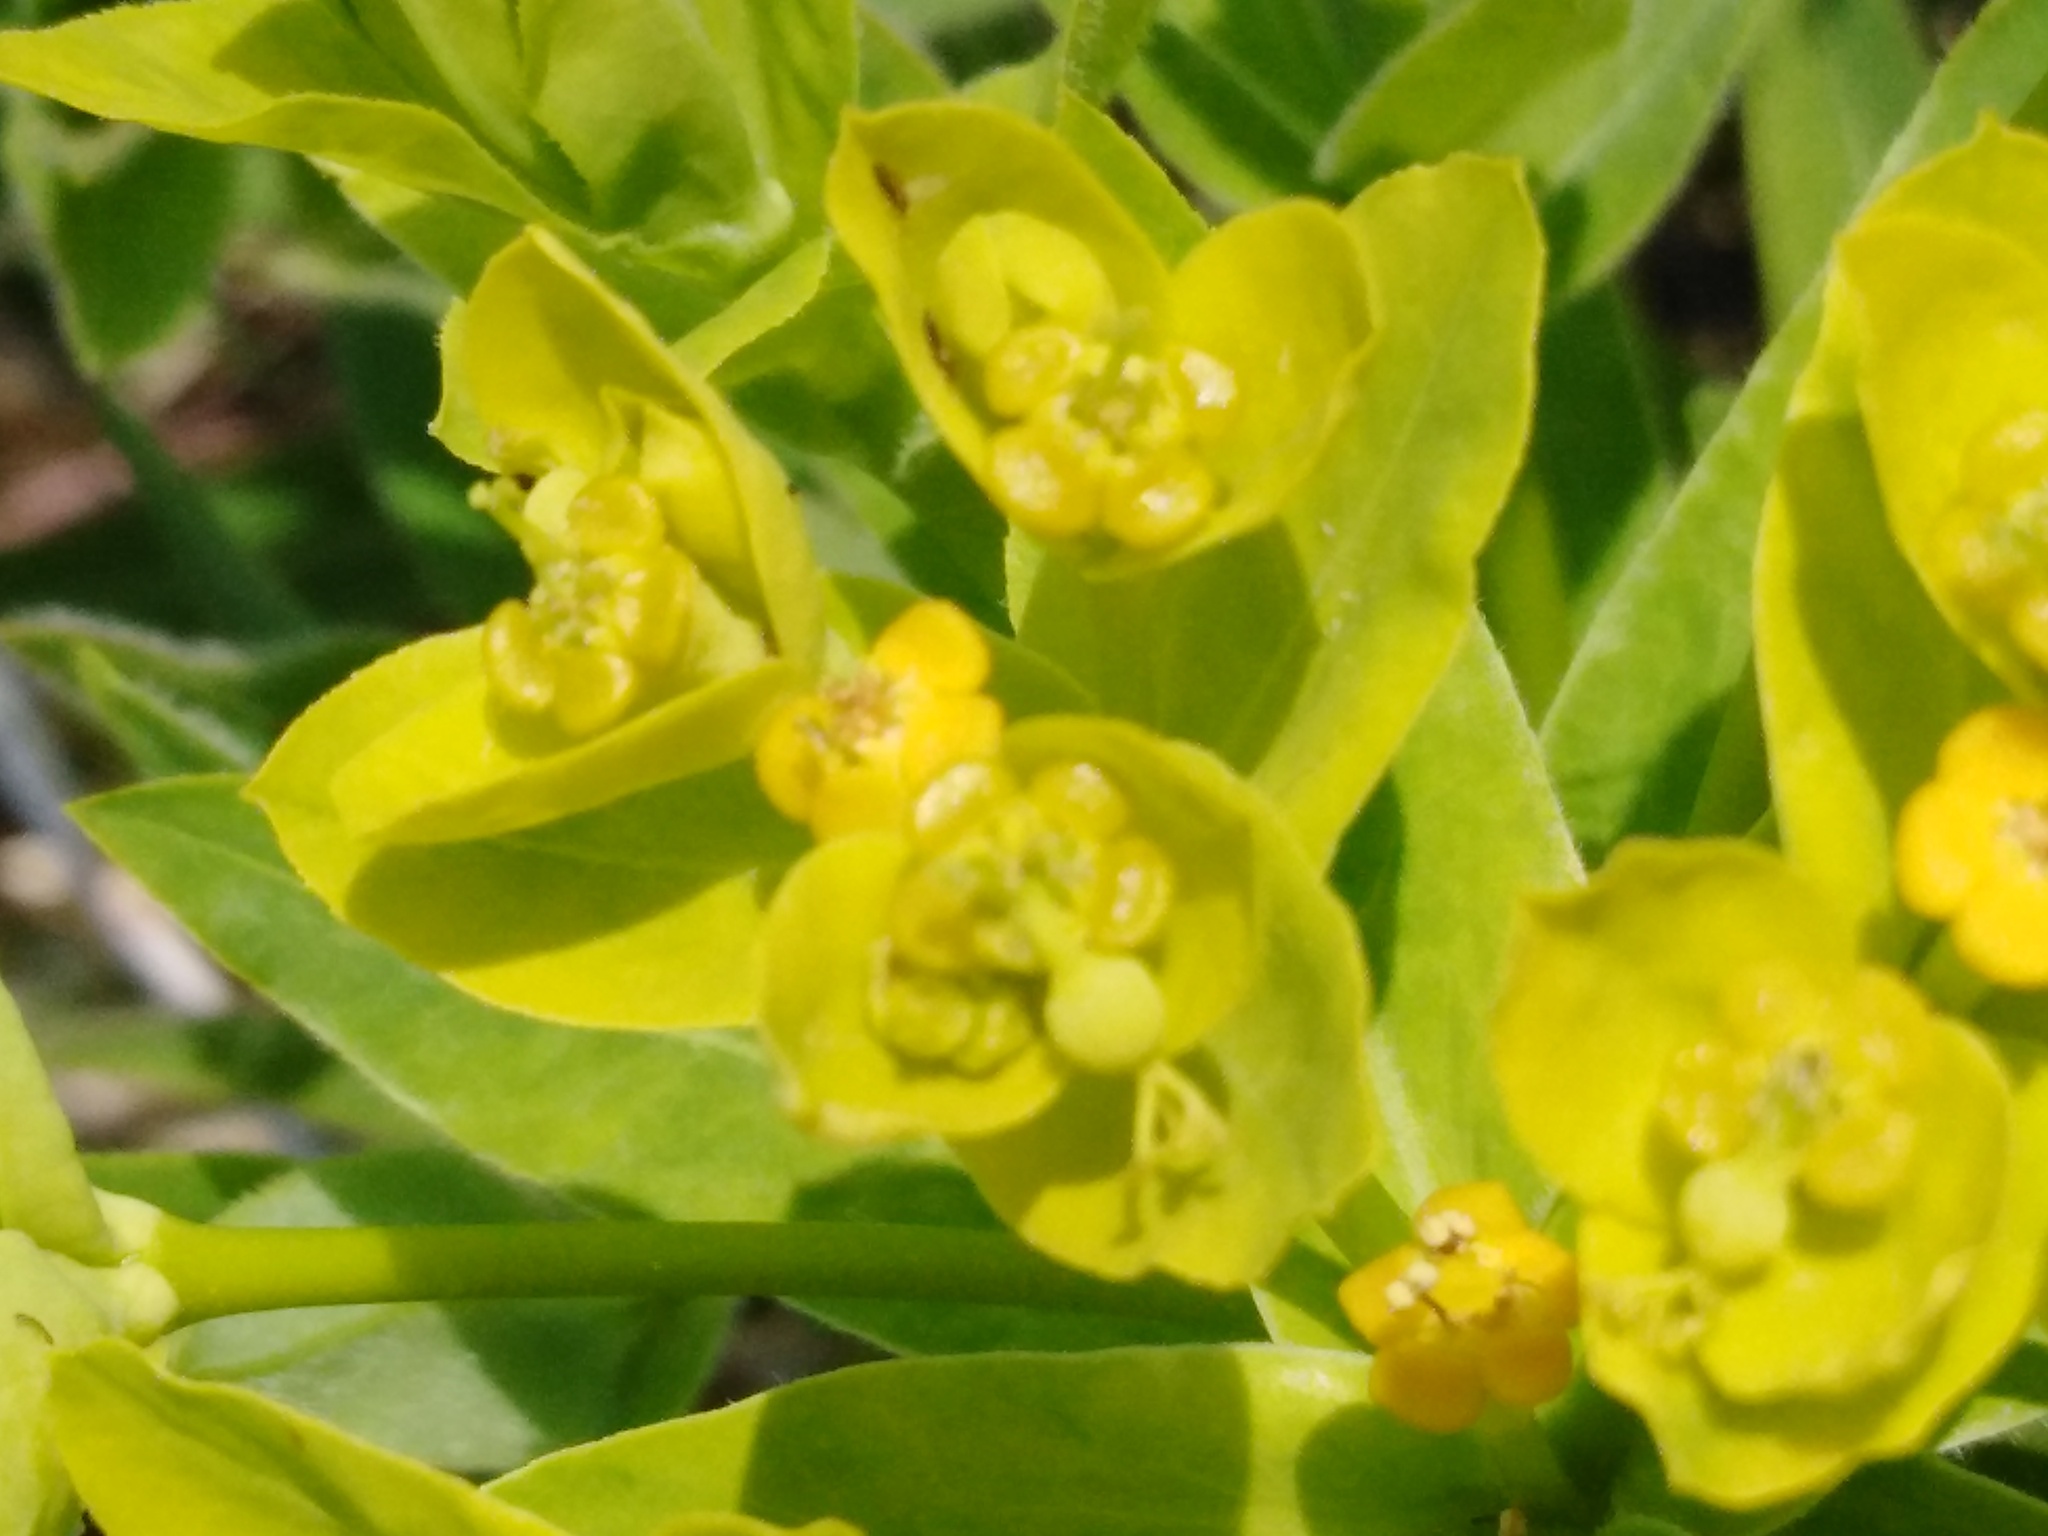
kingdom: Plantae
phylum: Tracheophyta
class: Magnoliopsida
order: Malpighiales
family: Euphorbiaceae
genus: Euphorbia
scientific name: Euphorbia semivillosa
